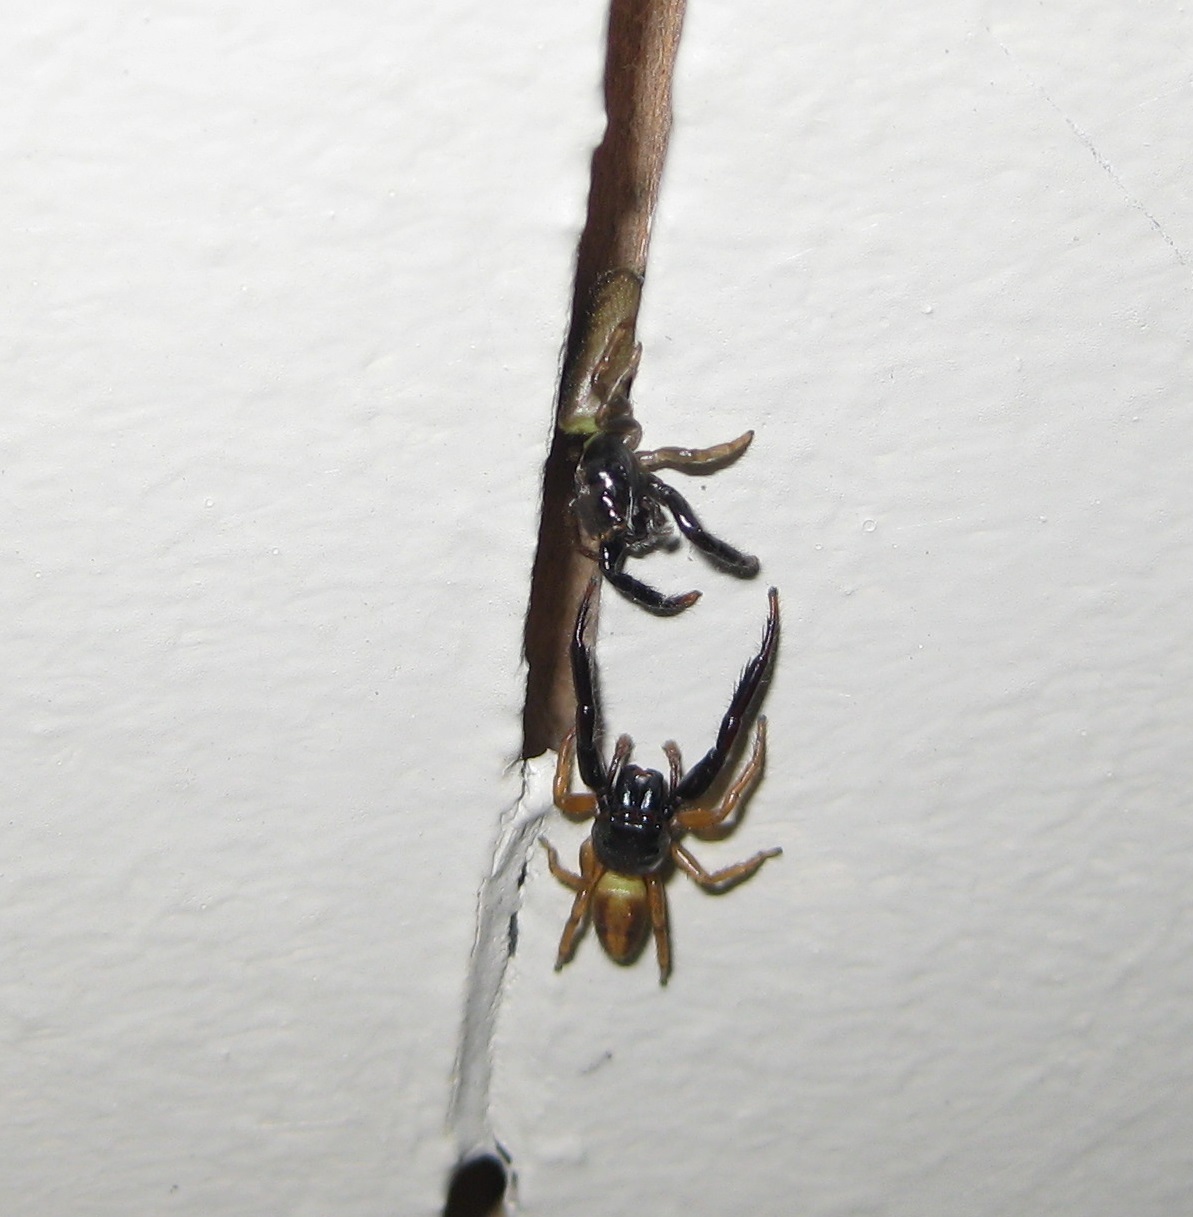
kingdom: Animalia
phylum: Arthropoda
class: Arachnida
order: Araneae
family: Salticidae
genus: Trite
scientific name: Trite planiceps
